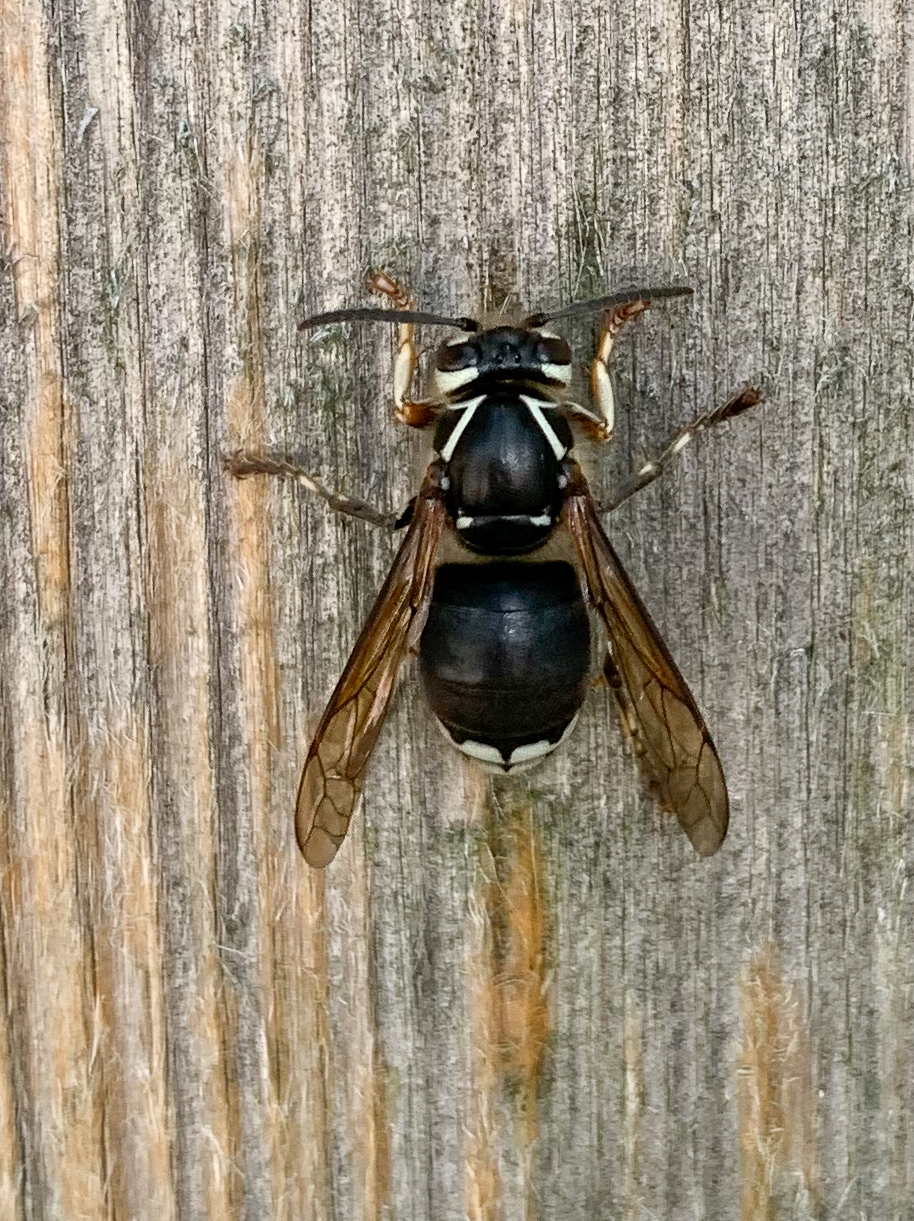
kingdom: Animalia
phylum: Arthropoda
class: Insecta
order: Hymenoptera
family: Vespidae
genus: Dolichovespula
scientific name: Dolichovespula maculata
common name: Bald-faced hornet
